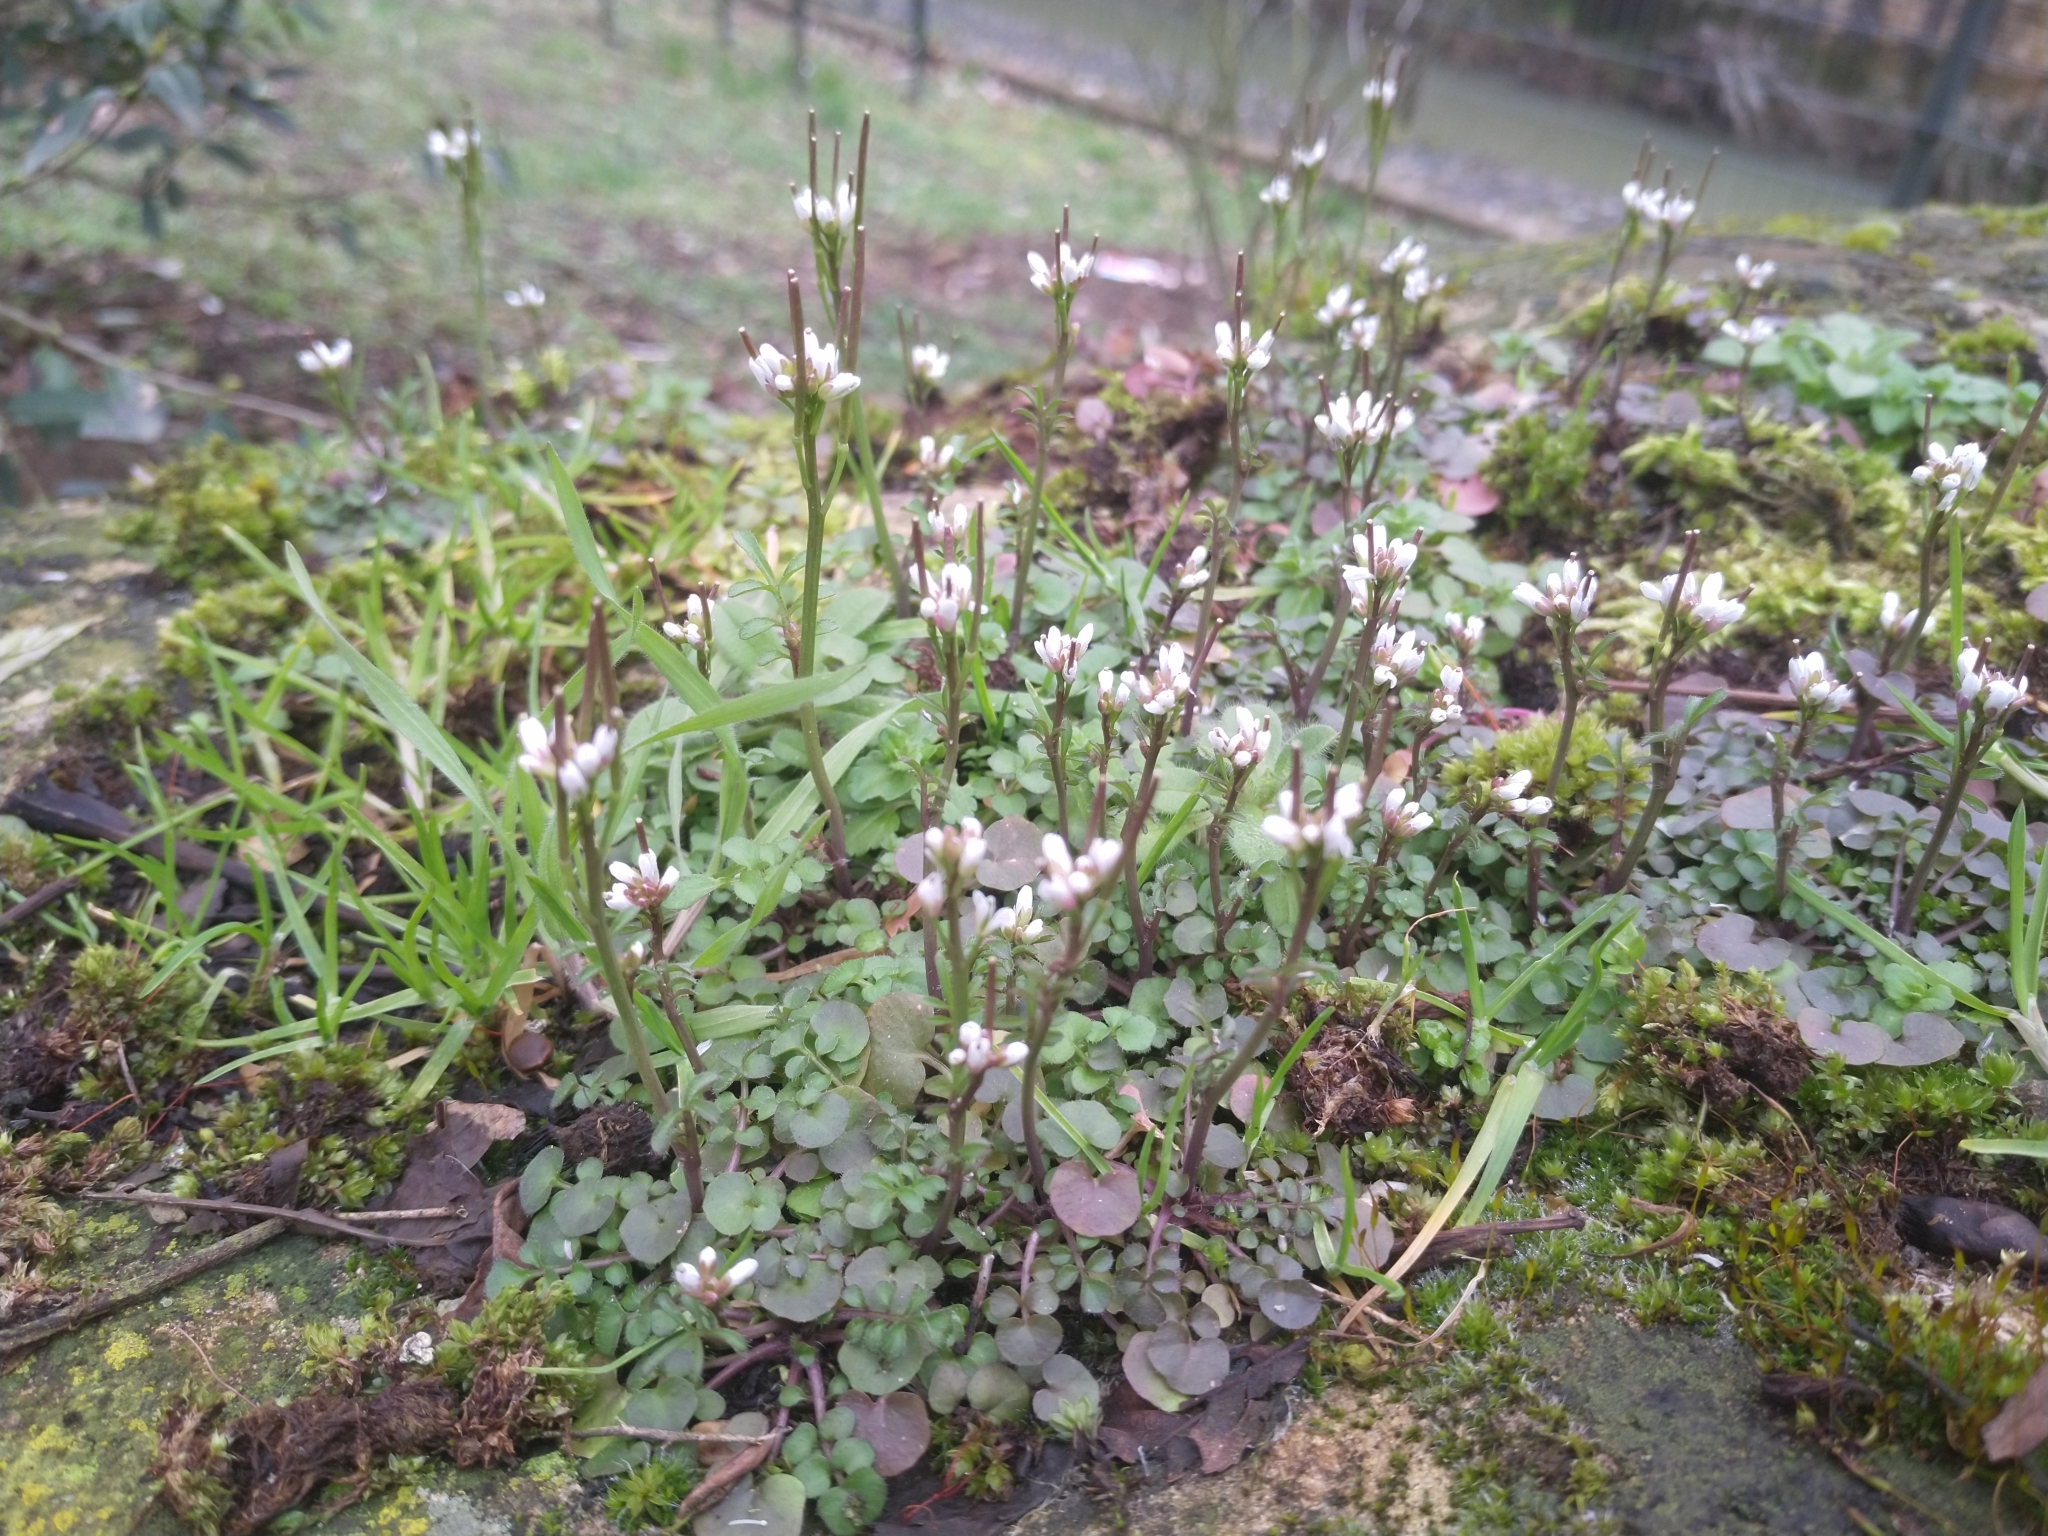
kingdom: Plantae
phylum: Tracheophyta
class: Magnoliopsida
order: Brassicales
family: Brassicaceae
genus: Cardamine
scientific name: Cardamine hirsuta
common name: Hairy bittercress
